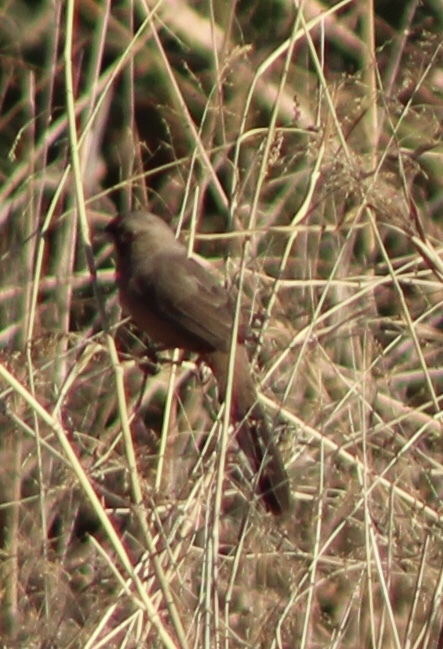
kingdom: Animalia
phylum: Chordata
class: Aves
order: Passeriformes
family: Passerellidae
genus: Melozone
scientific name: Melozone aberti
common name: Abert's towhee
